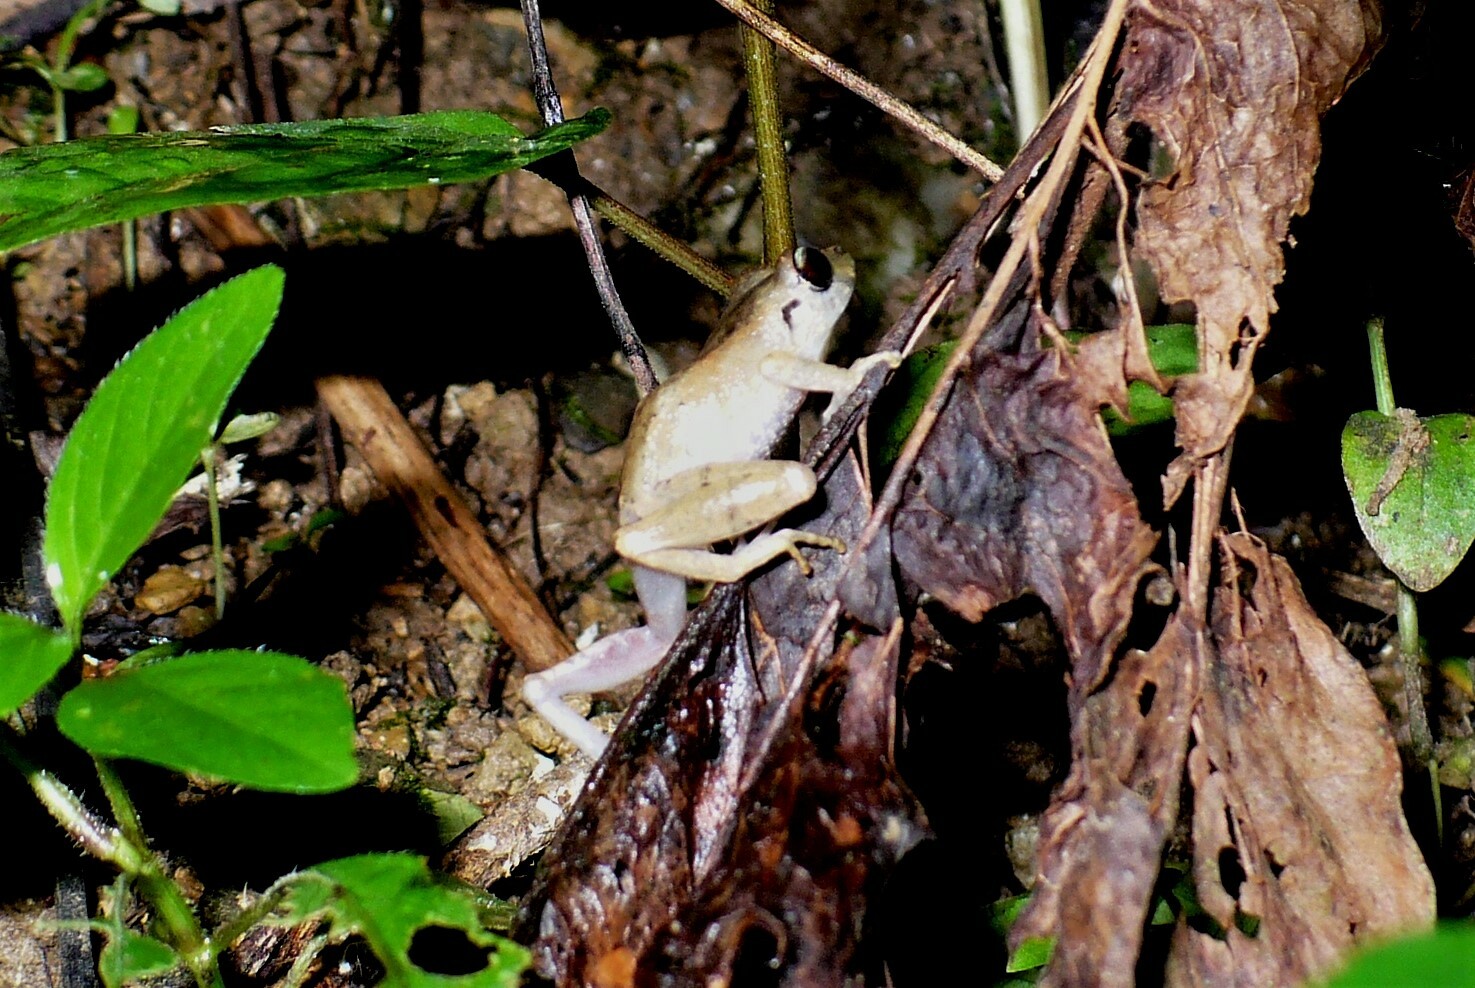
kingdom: Animalia
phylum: Chordata
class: Amphibia
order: Anura
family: Craugastoridae
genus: Pristimantis
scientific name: Pristimantis urichi
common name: Lesser antilles robber frog
